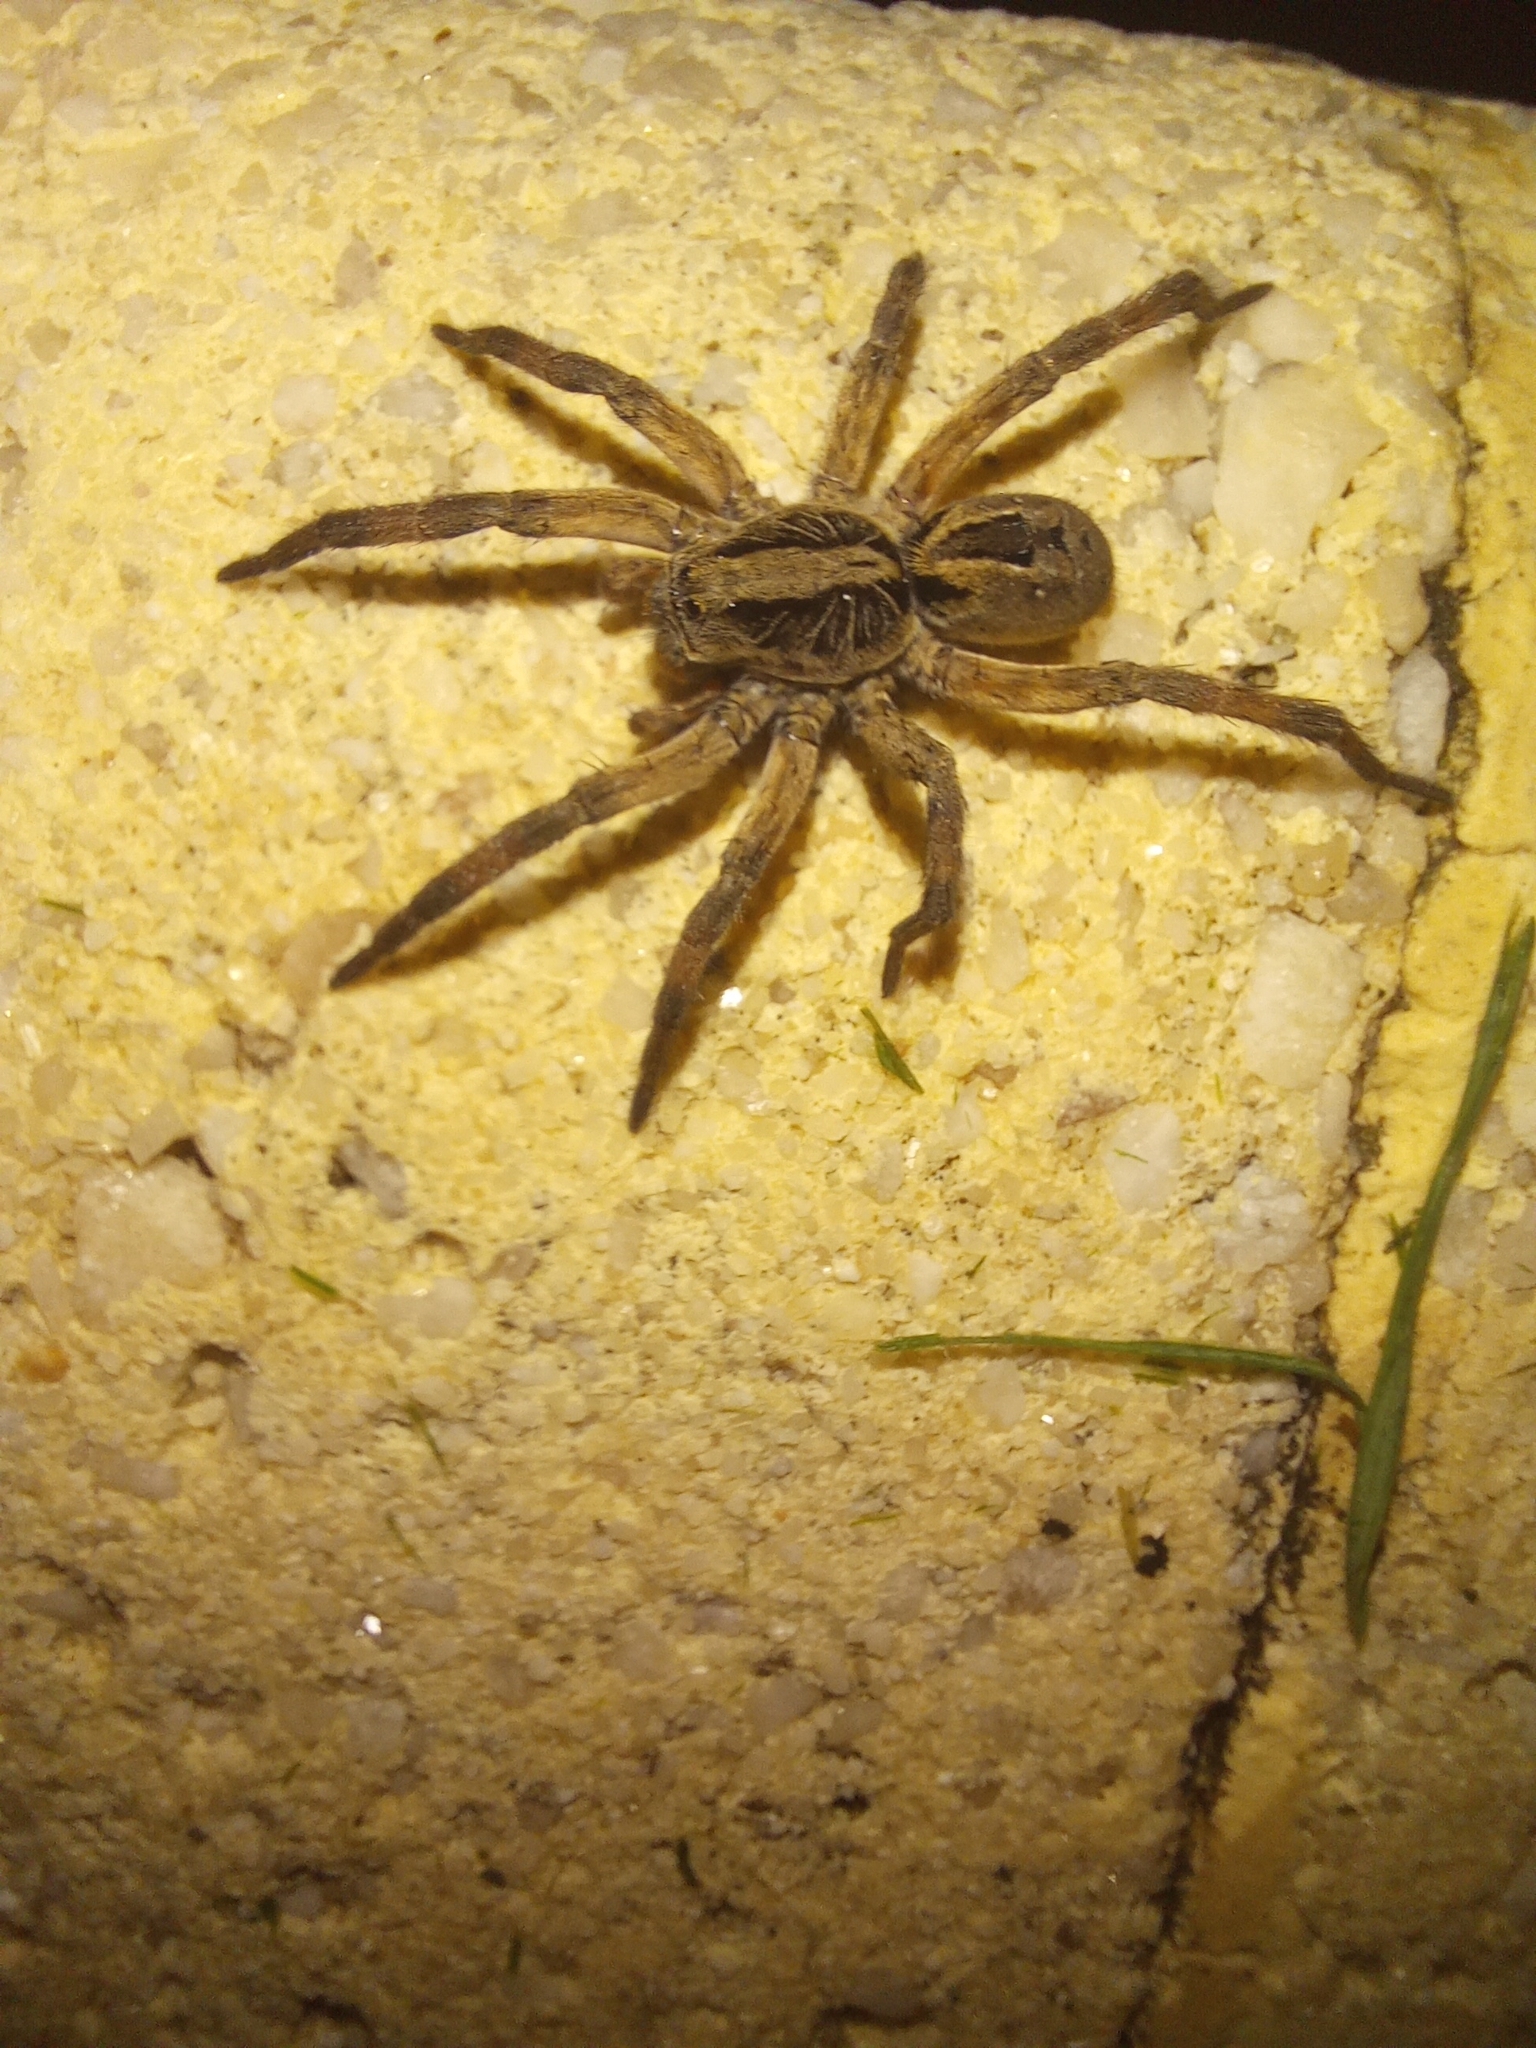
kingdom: Animalia
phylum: Arthropoda
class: Arachnida
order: Araneae
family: Lycosidae
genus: Lycosa
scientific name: Lycosa erythrognatha
